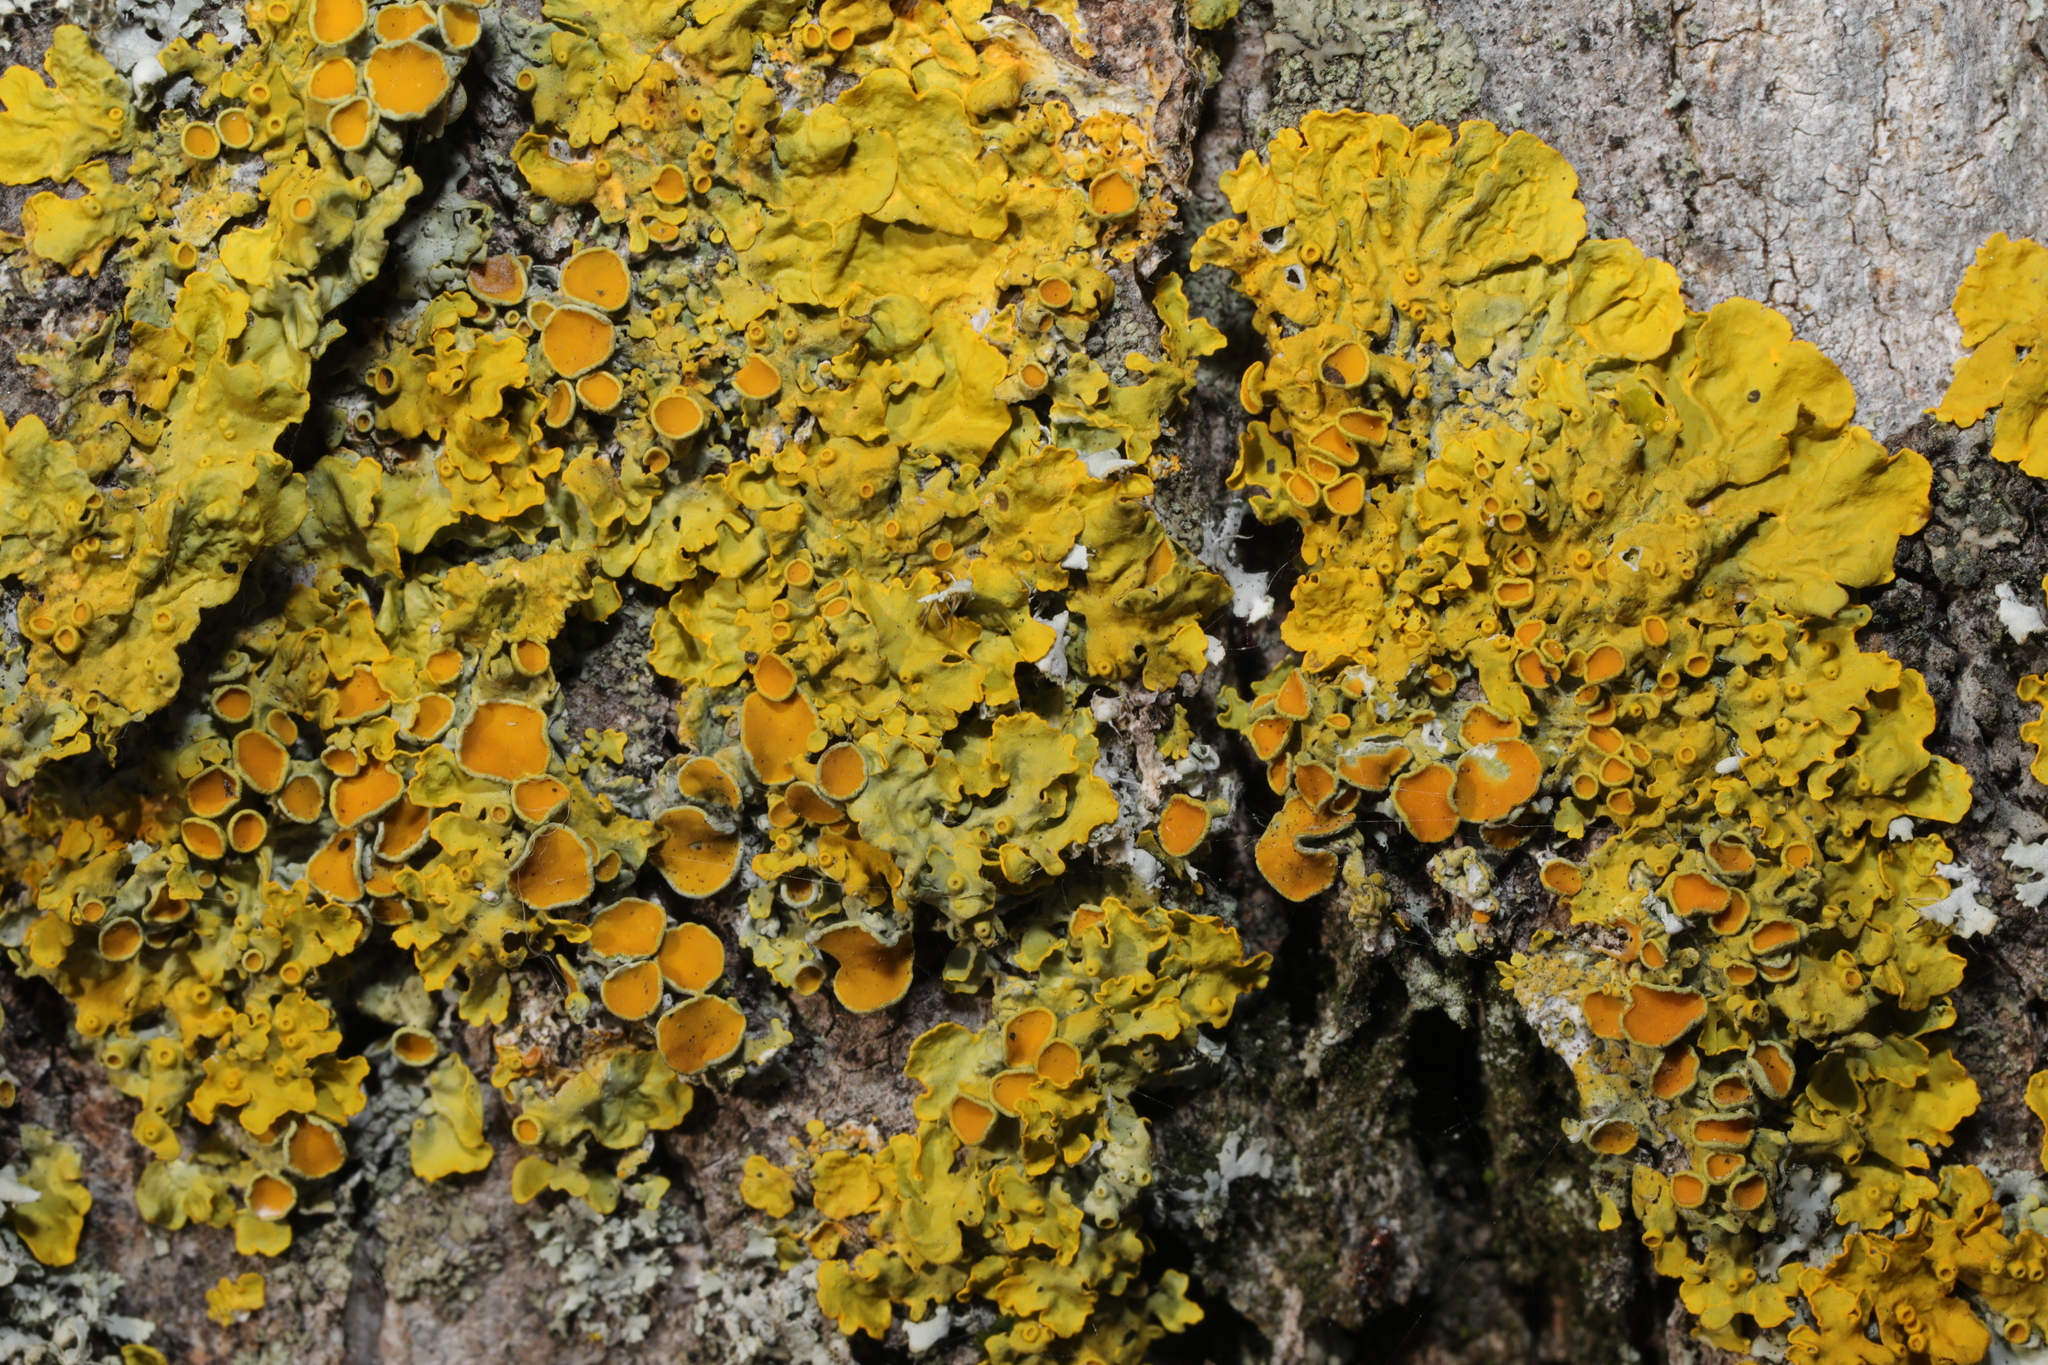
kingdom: Fungi
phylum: Ascomycota
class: Lecanoromycetes
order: Teloschistales
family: Teloschistaceae
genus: Xanthoria
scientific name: Xanthoria parietina
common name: Common orange lichen
